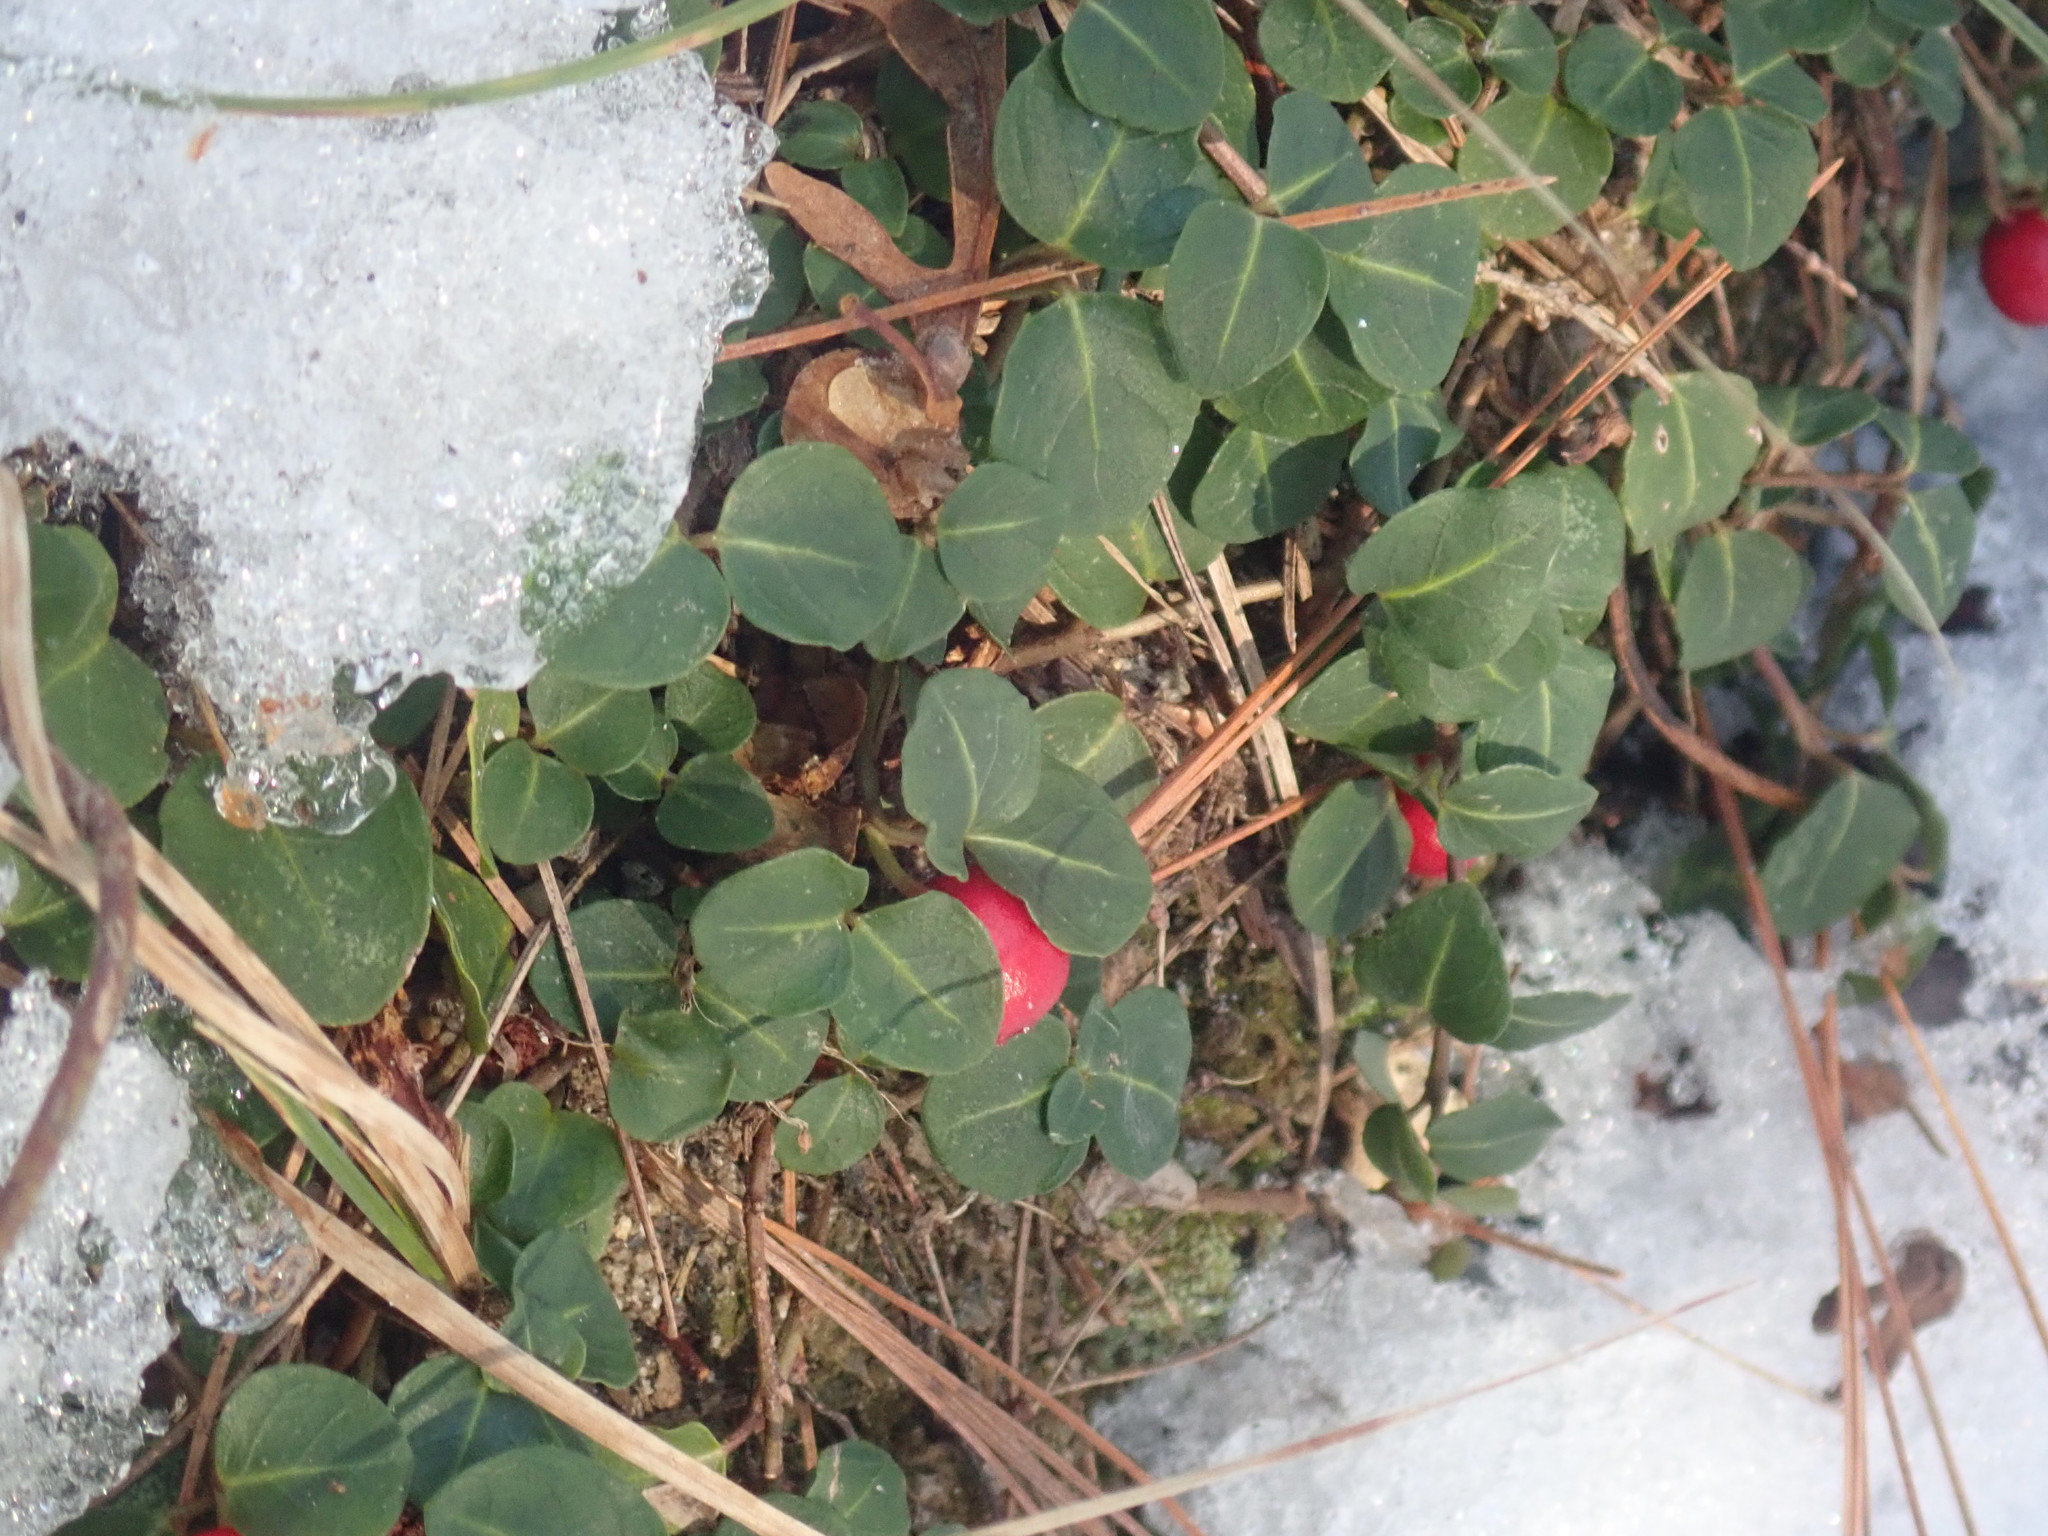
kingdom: Plantae
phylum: Tracheophyta
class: Magnoliopsida
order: Gentianales
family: Rubiaceae
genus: Mitchella
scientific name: Mitchella repens
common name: Partridge-berry
